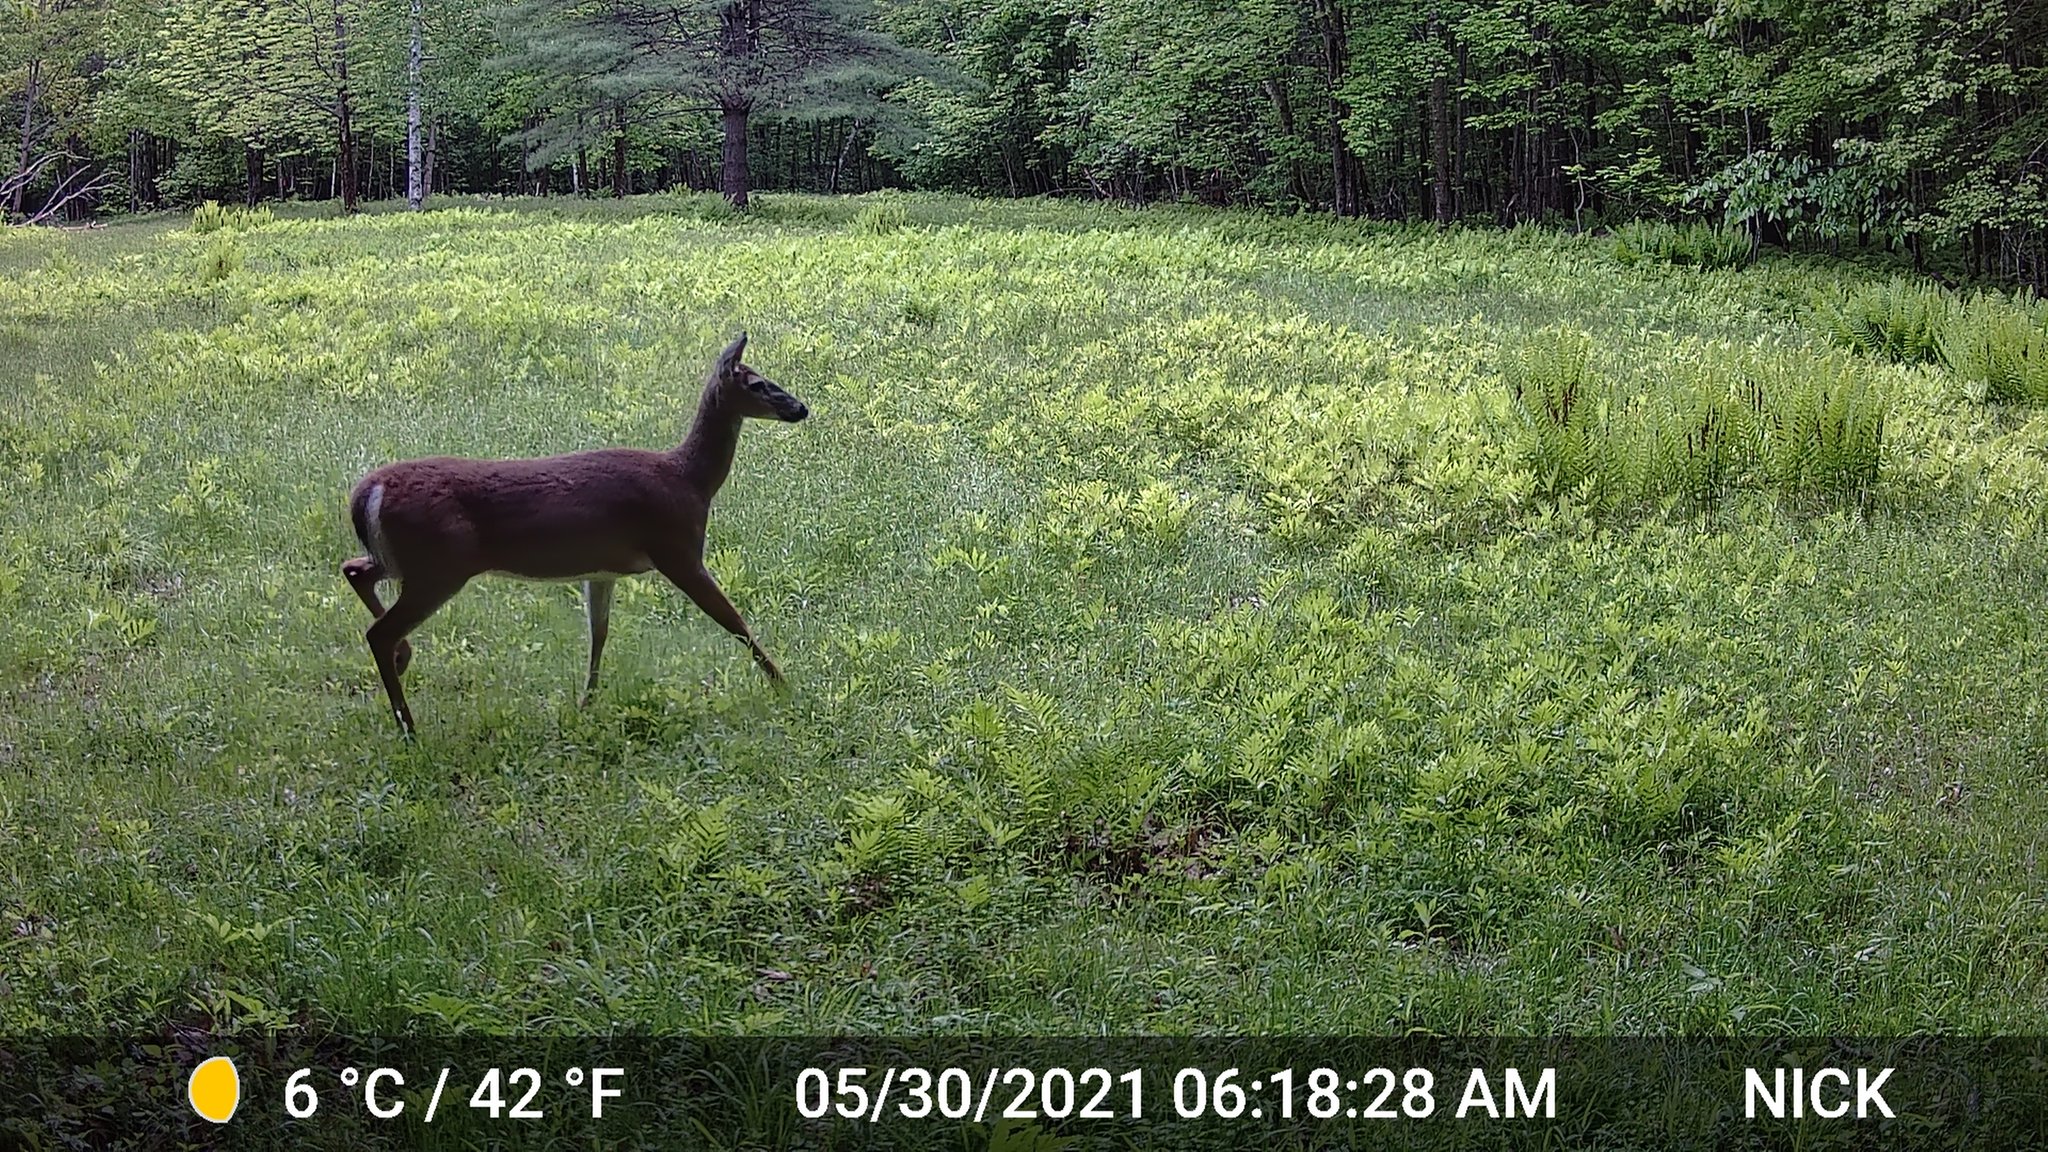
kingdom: Animalia
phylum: Chordata
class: Mammalia
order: Artiodactyla
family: Cervidae
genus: Odocoileus
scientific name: Odocoileus virginianus
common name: White-tailed deer
